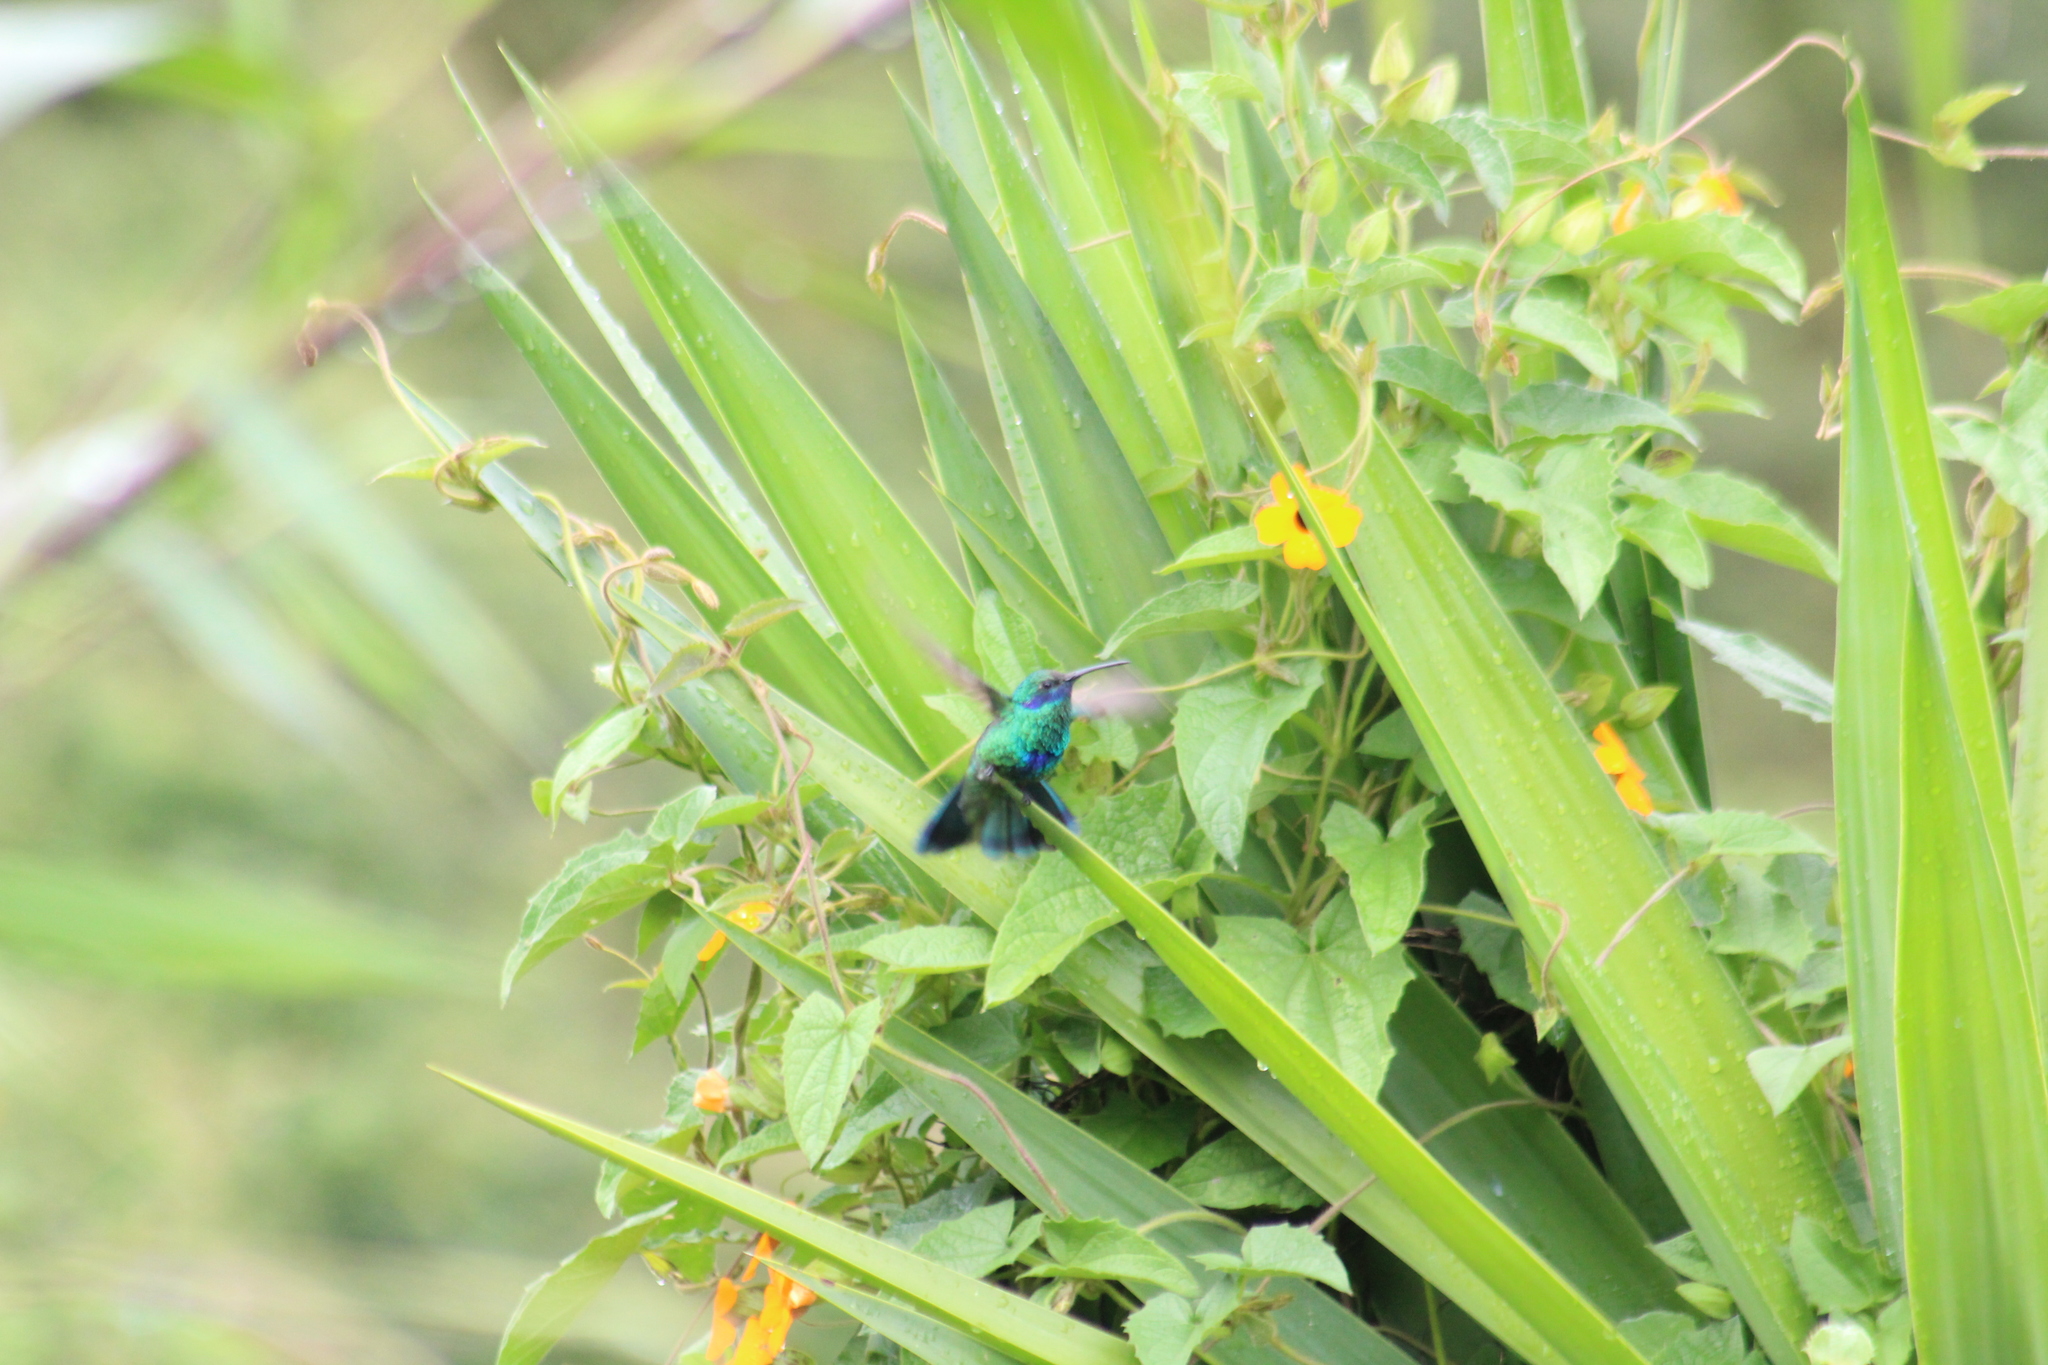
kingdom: Animalia
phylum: Chordata
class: Aves
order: Apodiformes
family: Trochilidae
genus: Colibri
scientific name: Colibri coruscans
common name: Sparkling violetear
